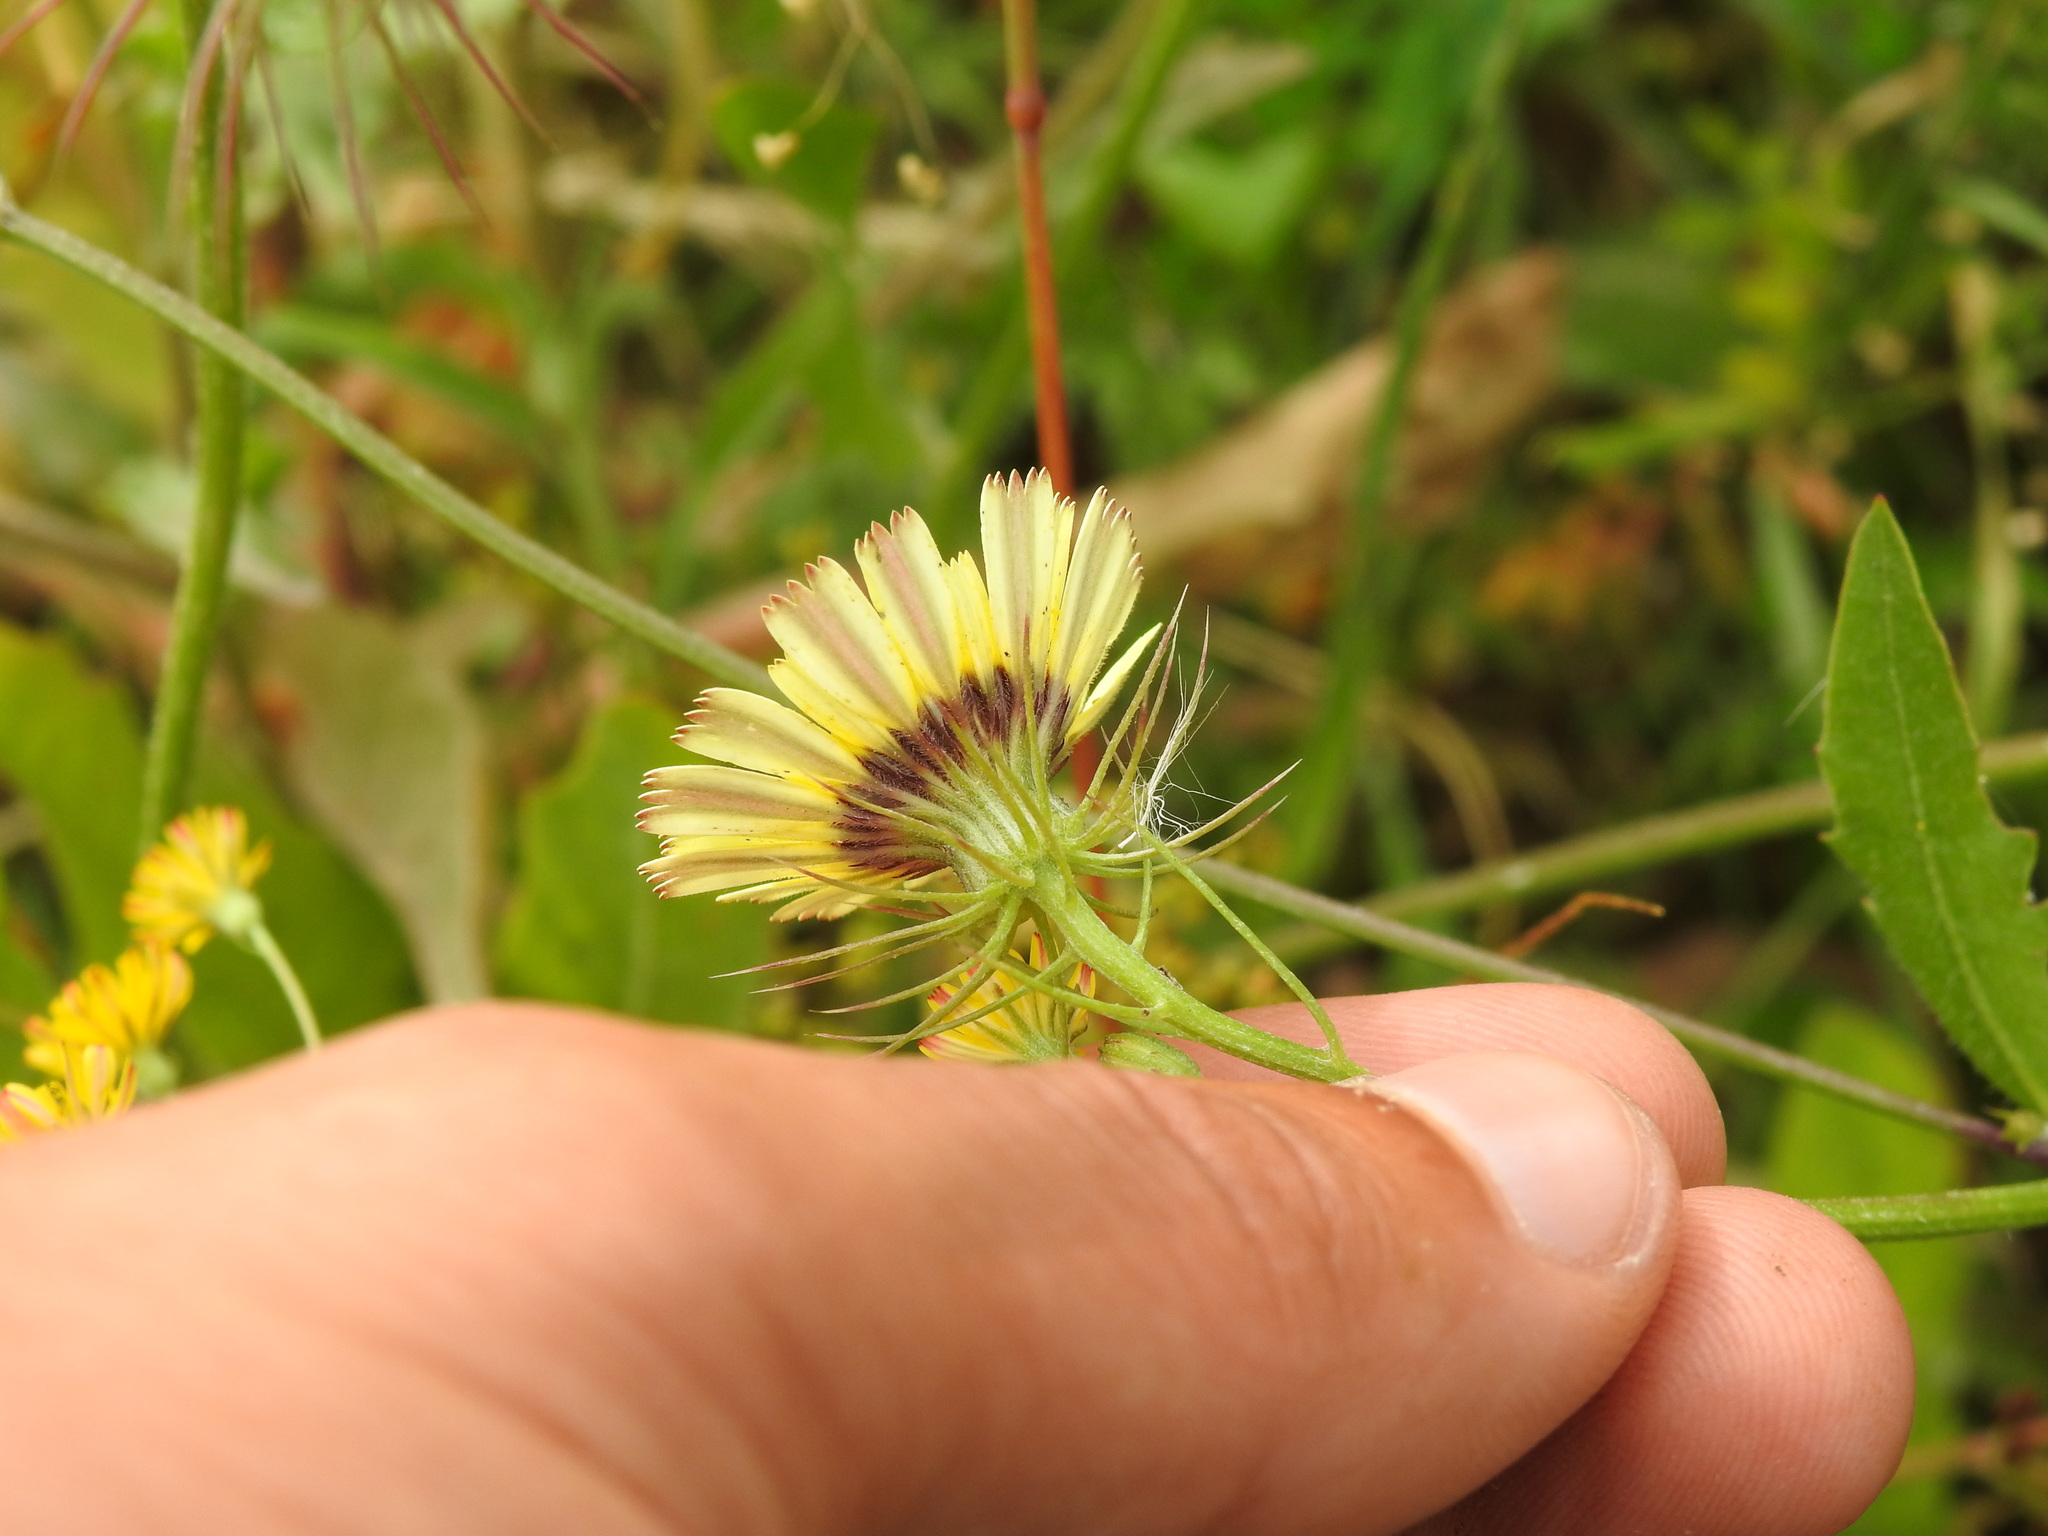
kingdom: Plantae
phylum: Tracheophyta
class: Magnoliopsida
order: Asterales
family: Asteraceae
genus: Tolpis
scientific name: Tolpis barbata
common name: Yellow hawkweed
